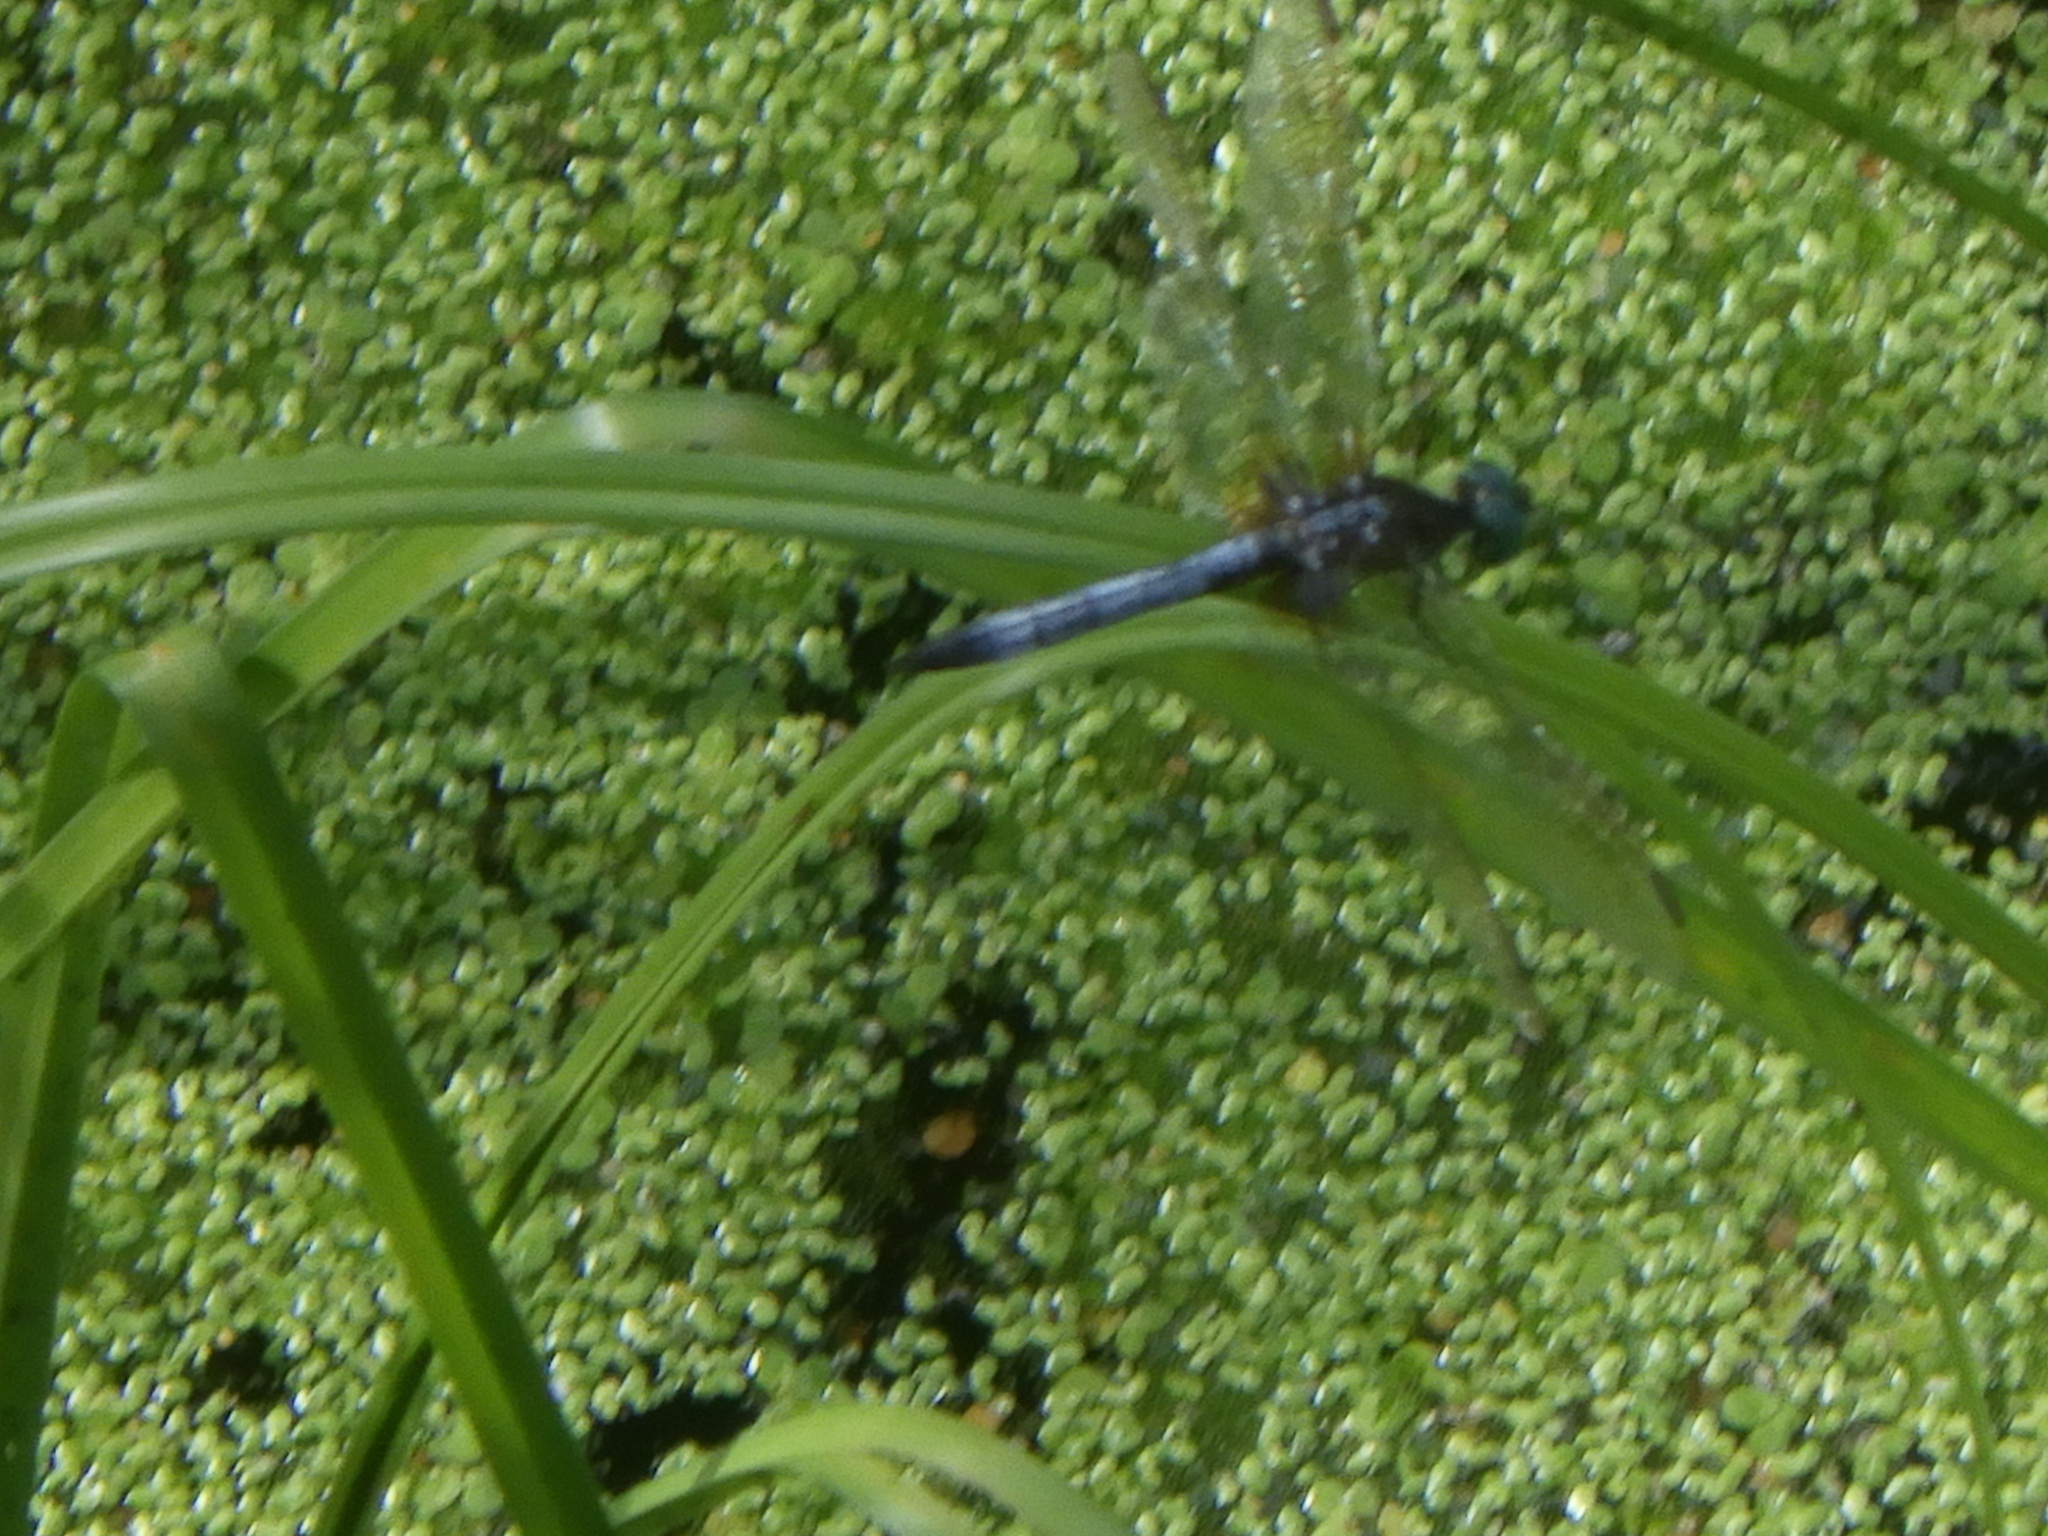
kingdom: Animalia
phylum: Arthropoda
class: Insecta
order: Odonata
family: Libellulidae
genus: Pachydiplax
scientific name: Pachydiplax longipennis
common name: Blue dasher
